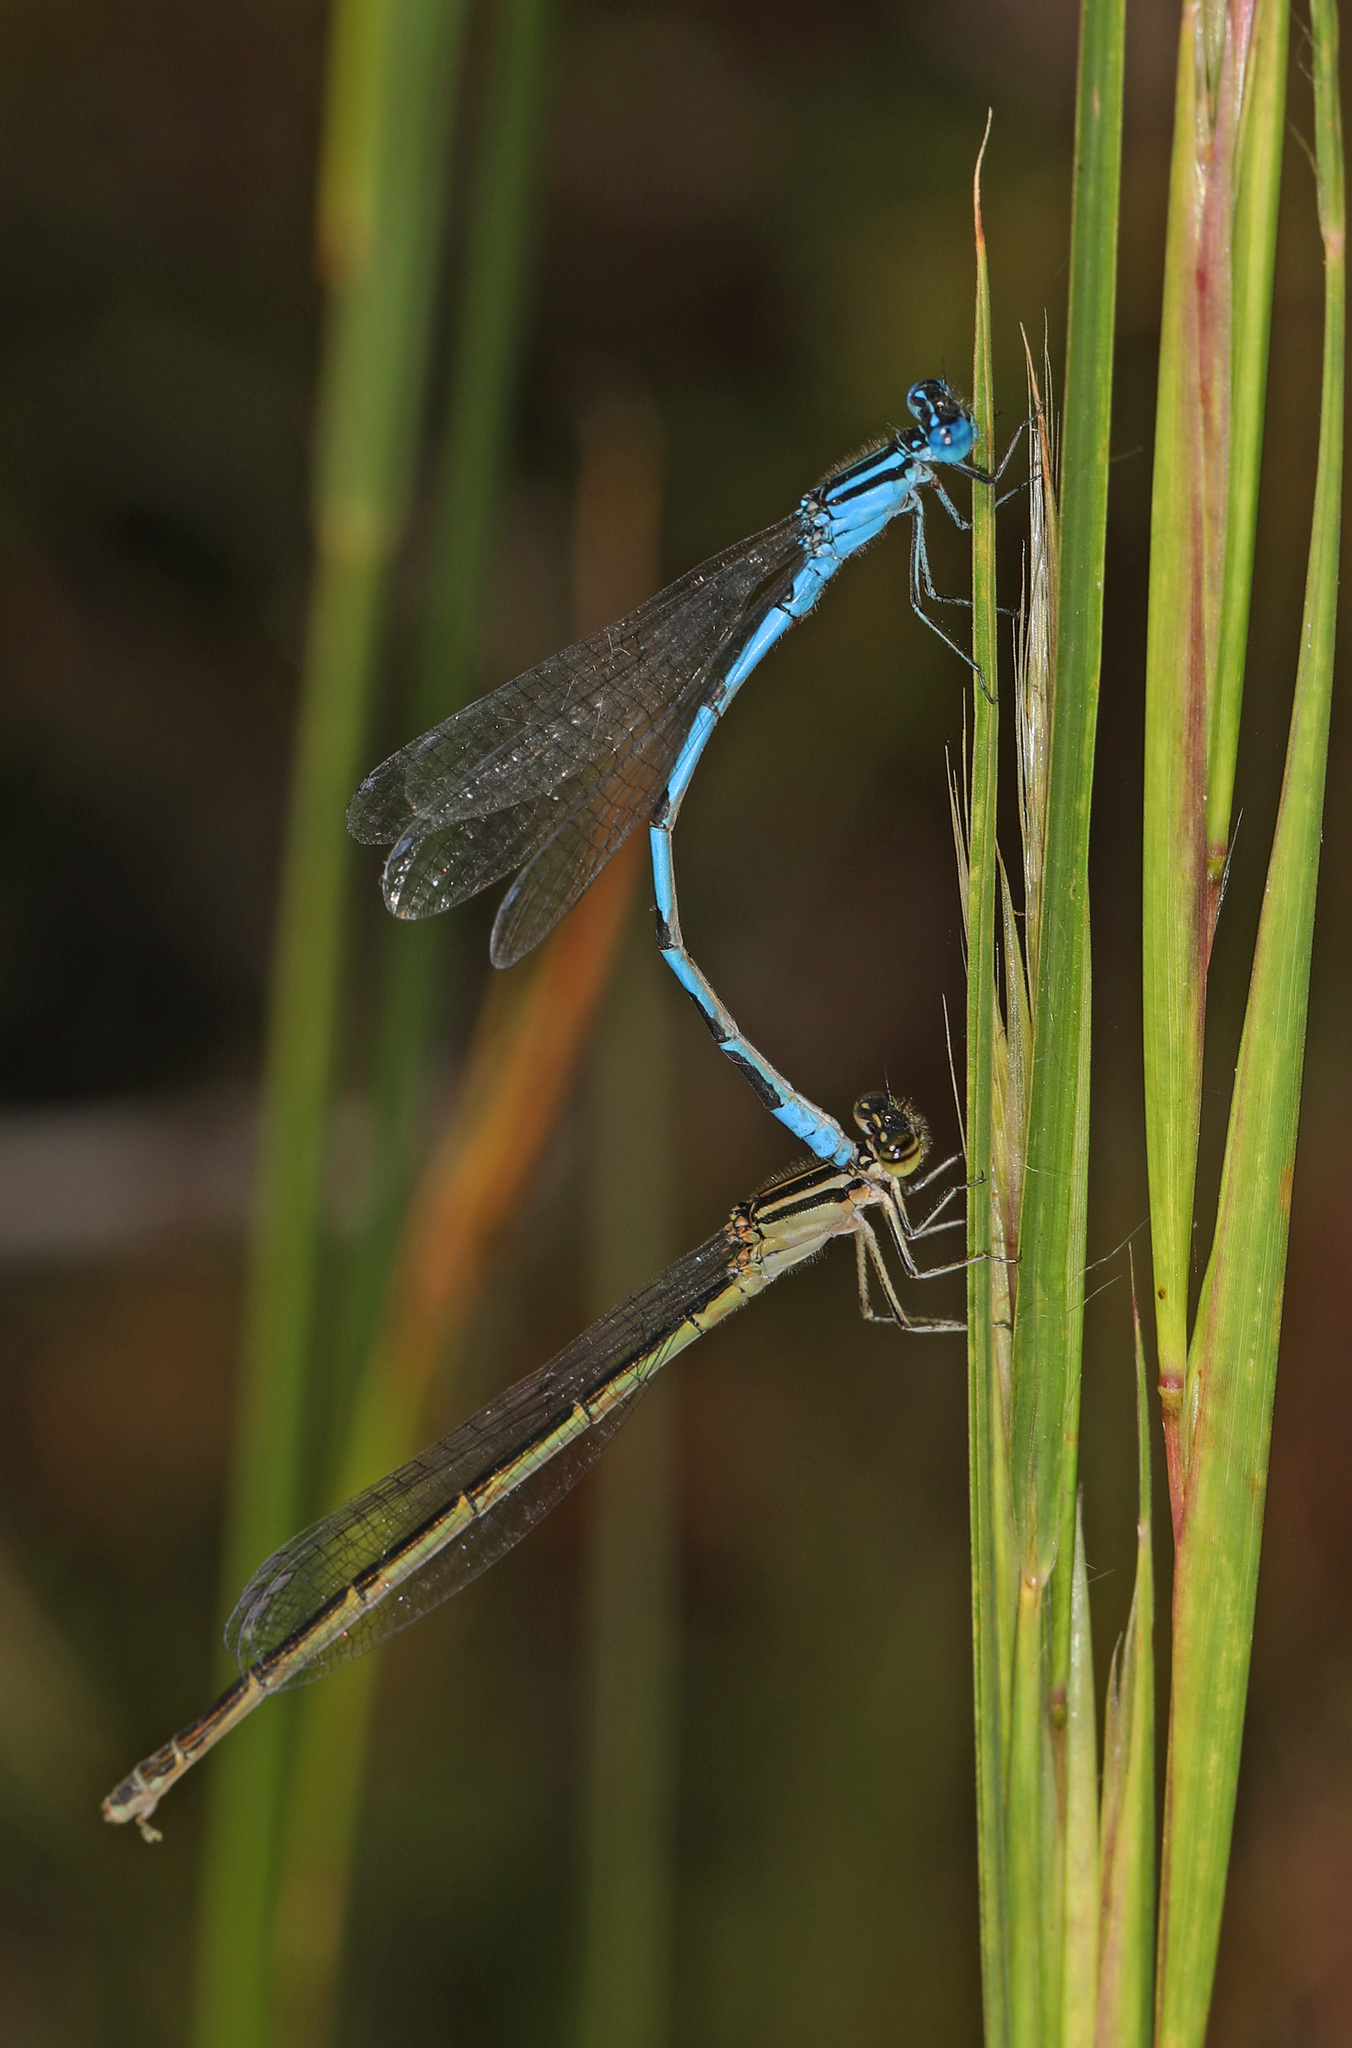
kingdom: Animalia
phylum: Arthropoda
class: Insecta
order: Odonata
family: Coenagrionidae
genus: Enallagma
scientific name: Enallagma durum
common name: Big bluet
